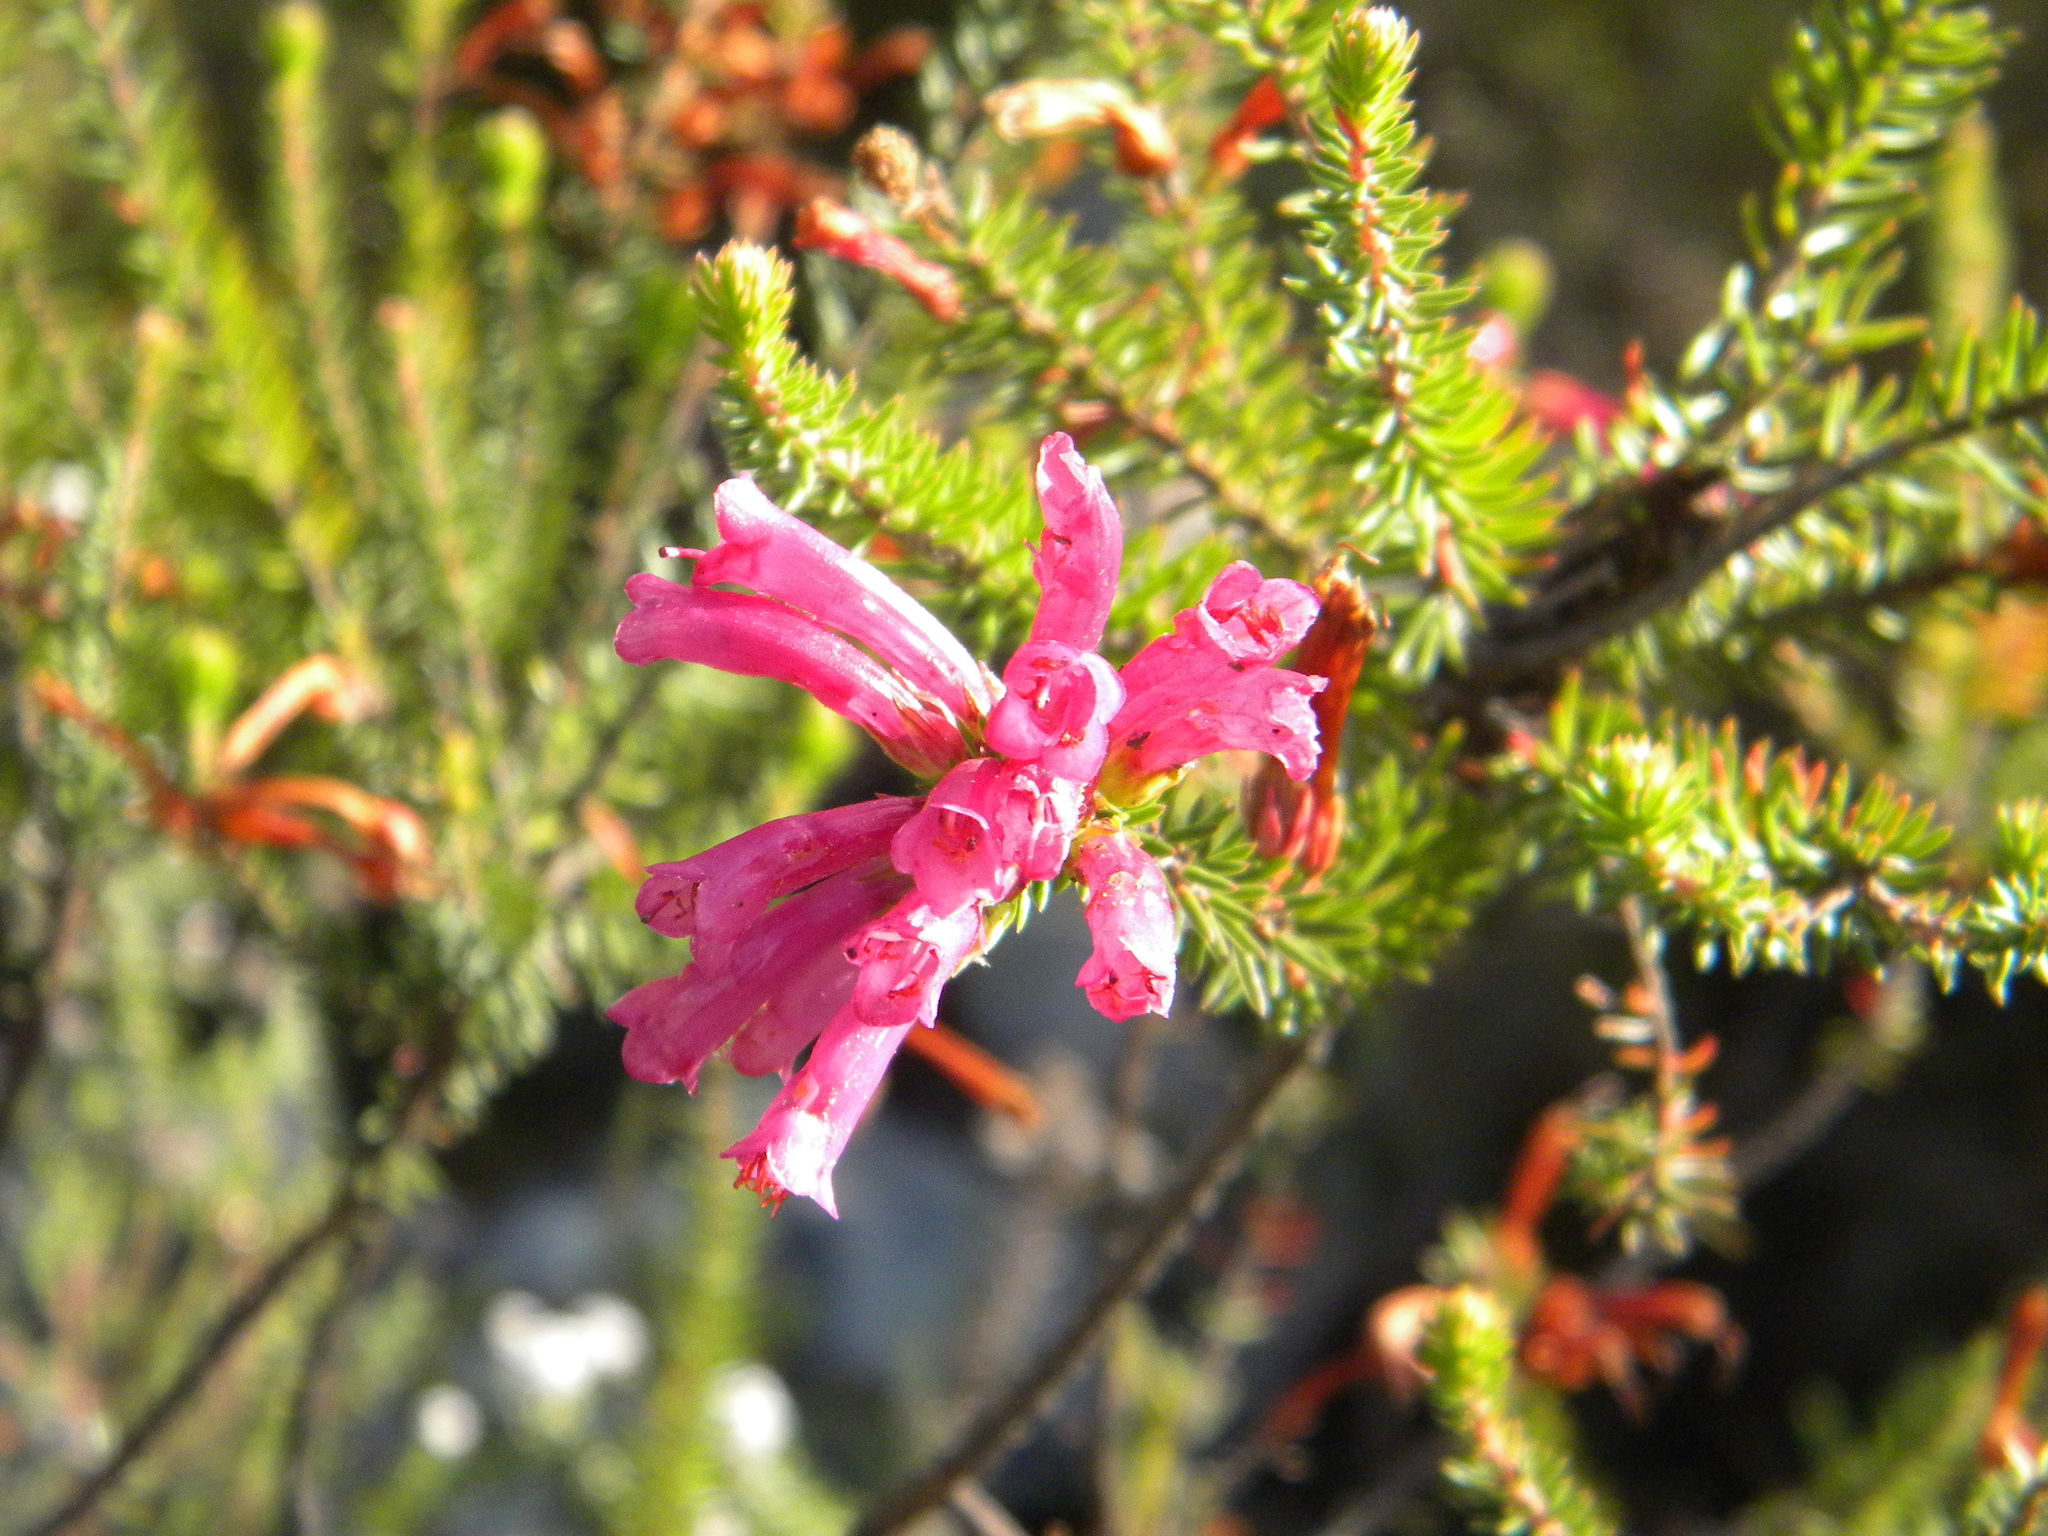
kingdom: Plantae
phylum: Tracheophyta
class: Magnoliopsida
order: Ericales
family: Ericaceae
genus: Erica
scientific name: Erica abietina
